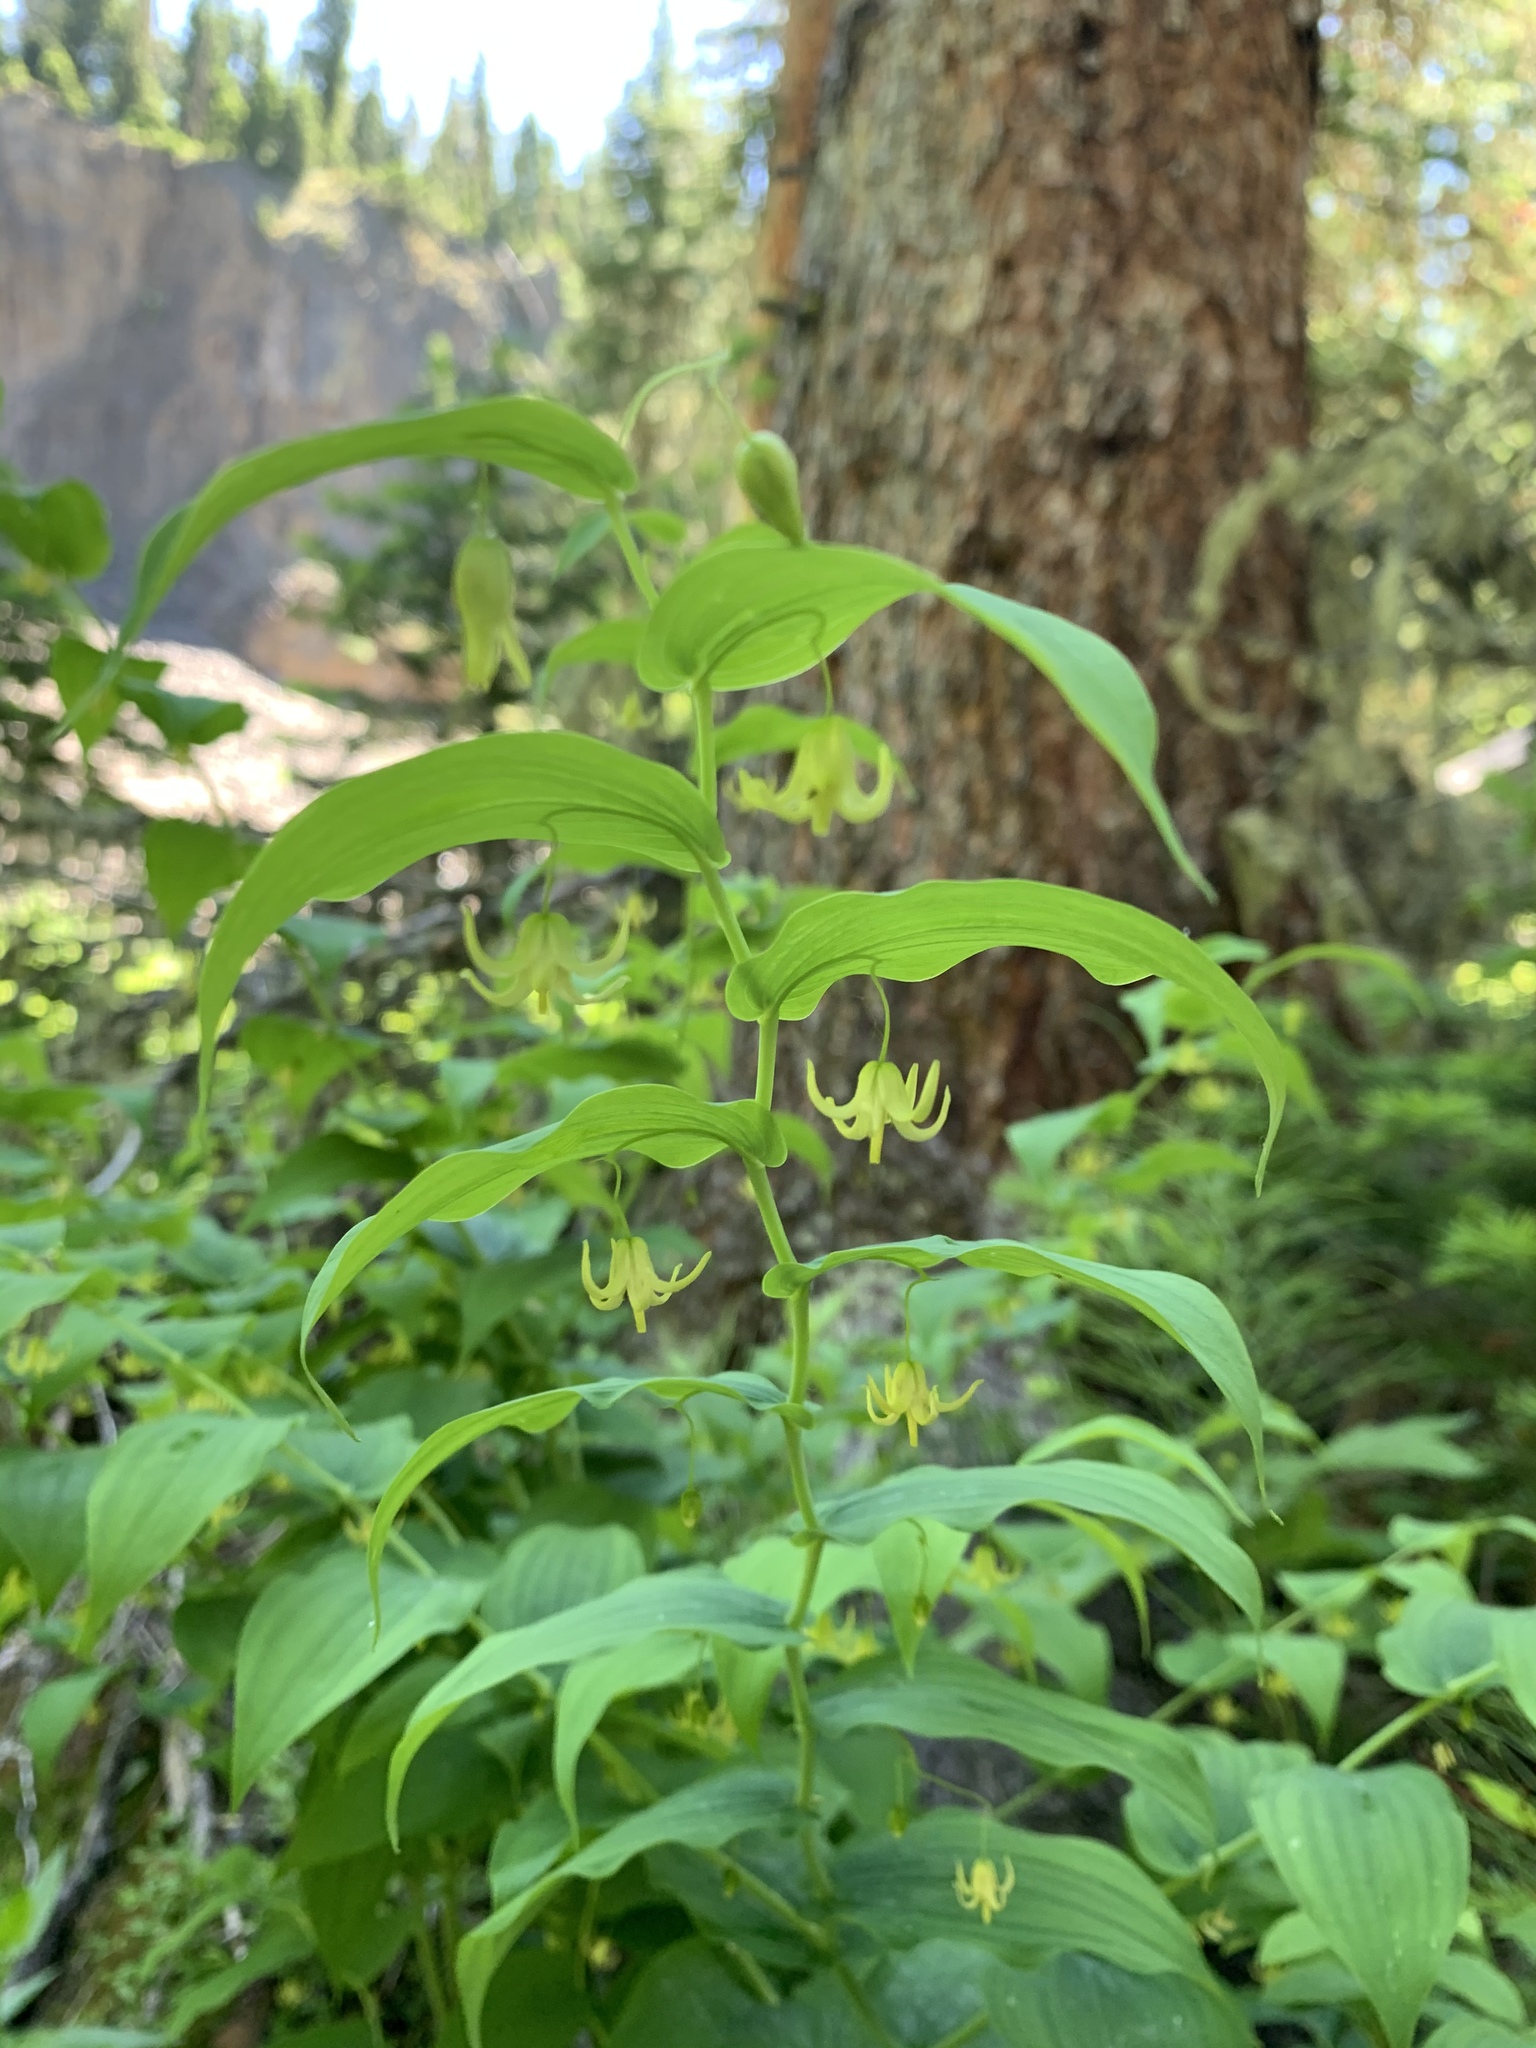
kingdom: Plantae
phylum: Tracheophyta
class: Liliopsida
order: Liliales
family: Liliaceae
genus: Streptopus
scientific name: Streptopus amplexifolius
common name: Clasp twisted stalk
